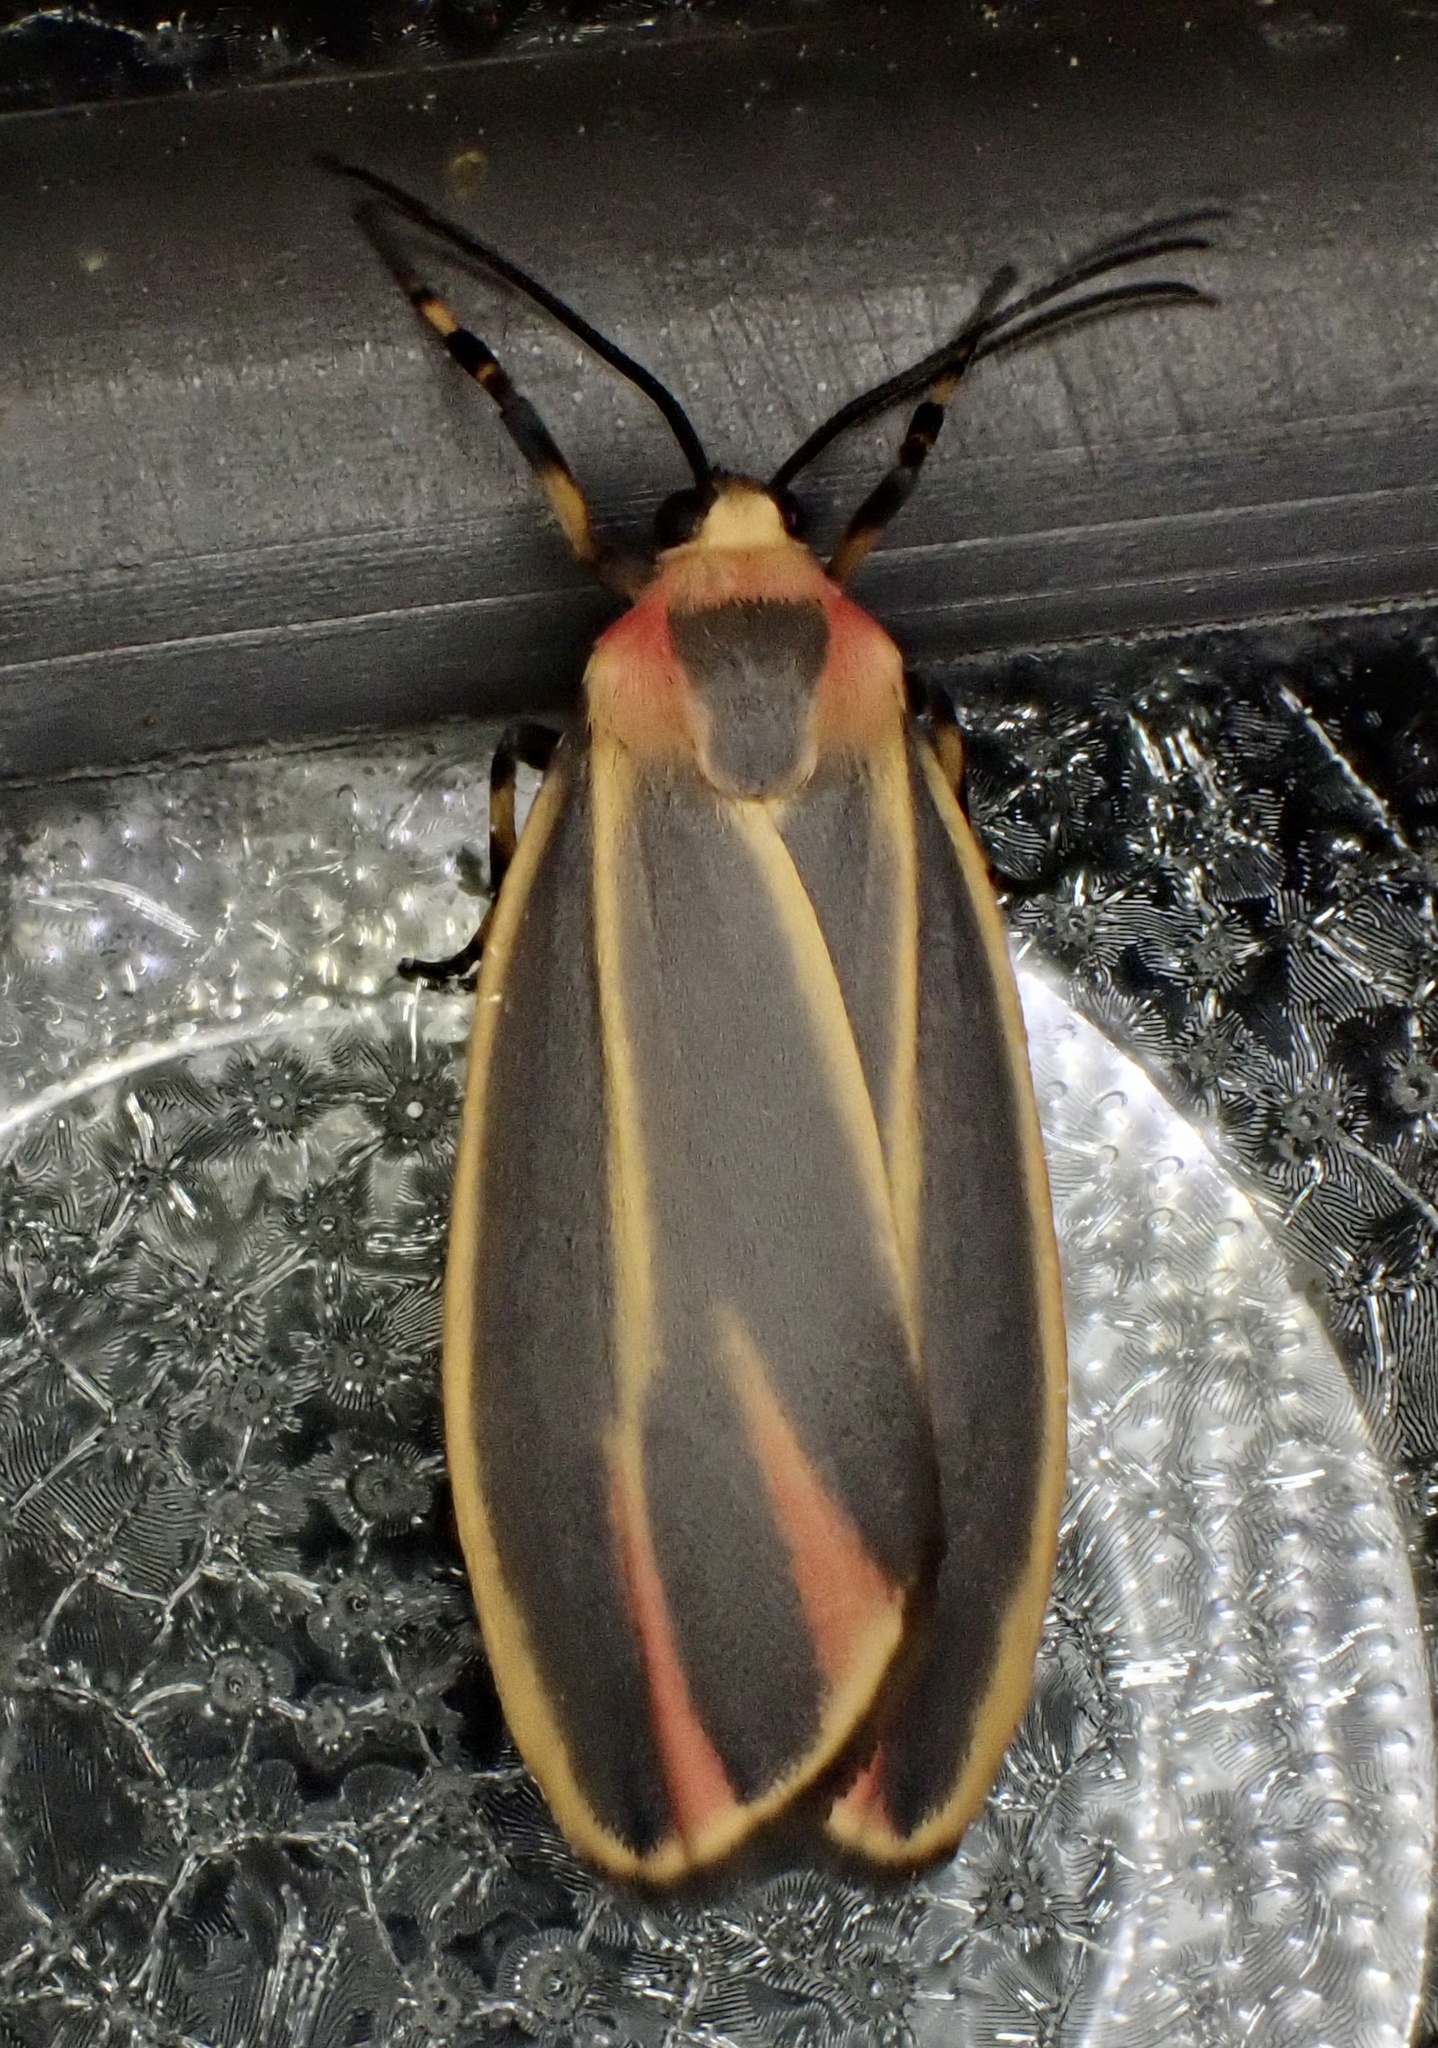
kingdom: Animalia
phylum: Arthropoda
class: Insecta
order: Lepidoptera
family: Erebidae
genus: Hypoprepia
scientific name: Hypoprepia fucosa
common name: Painted lichen moth
